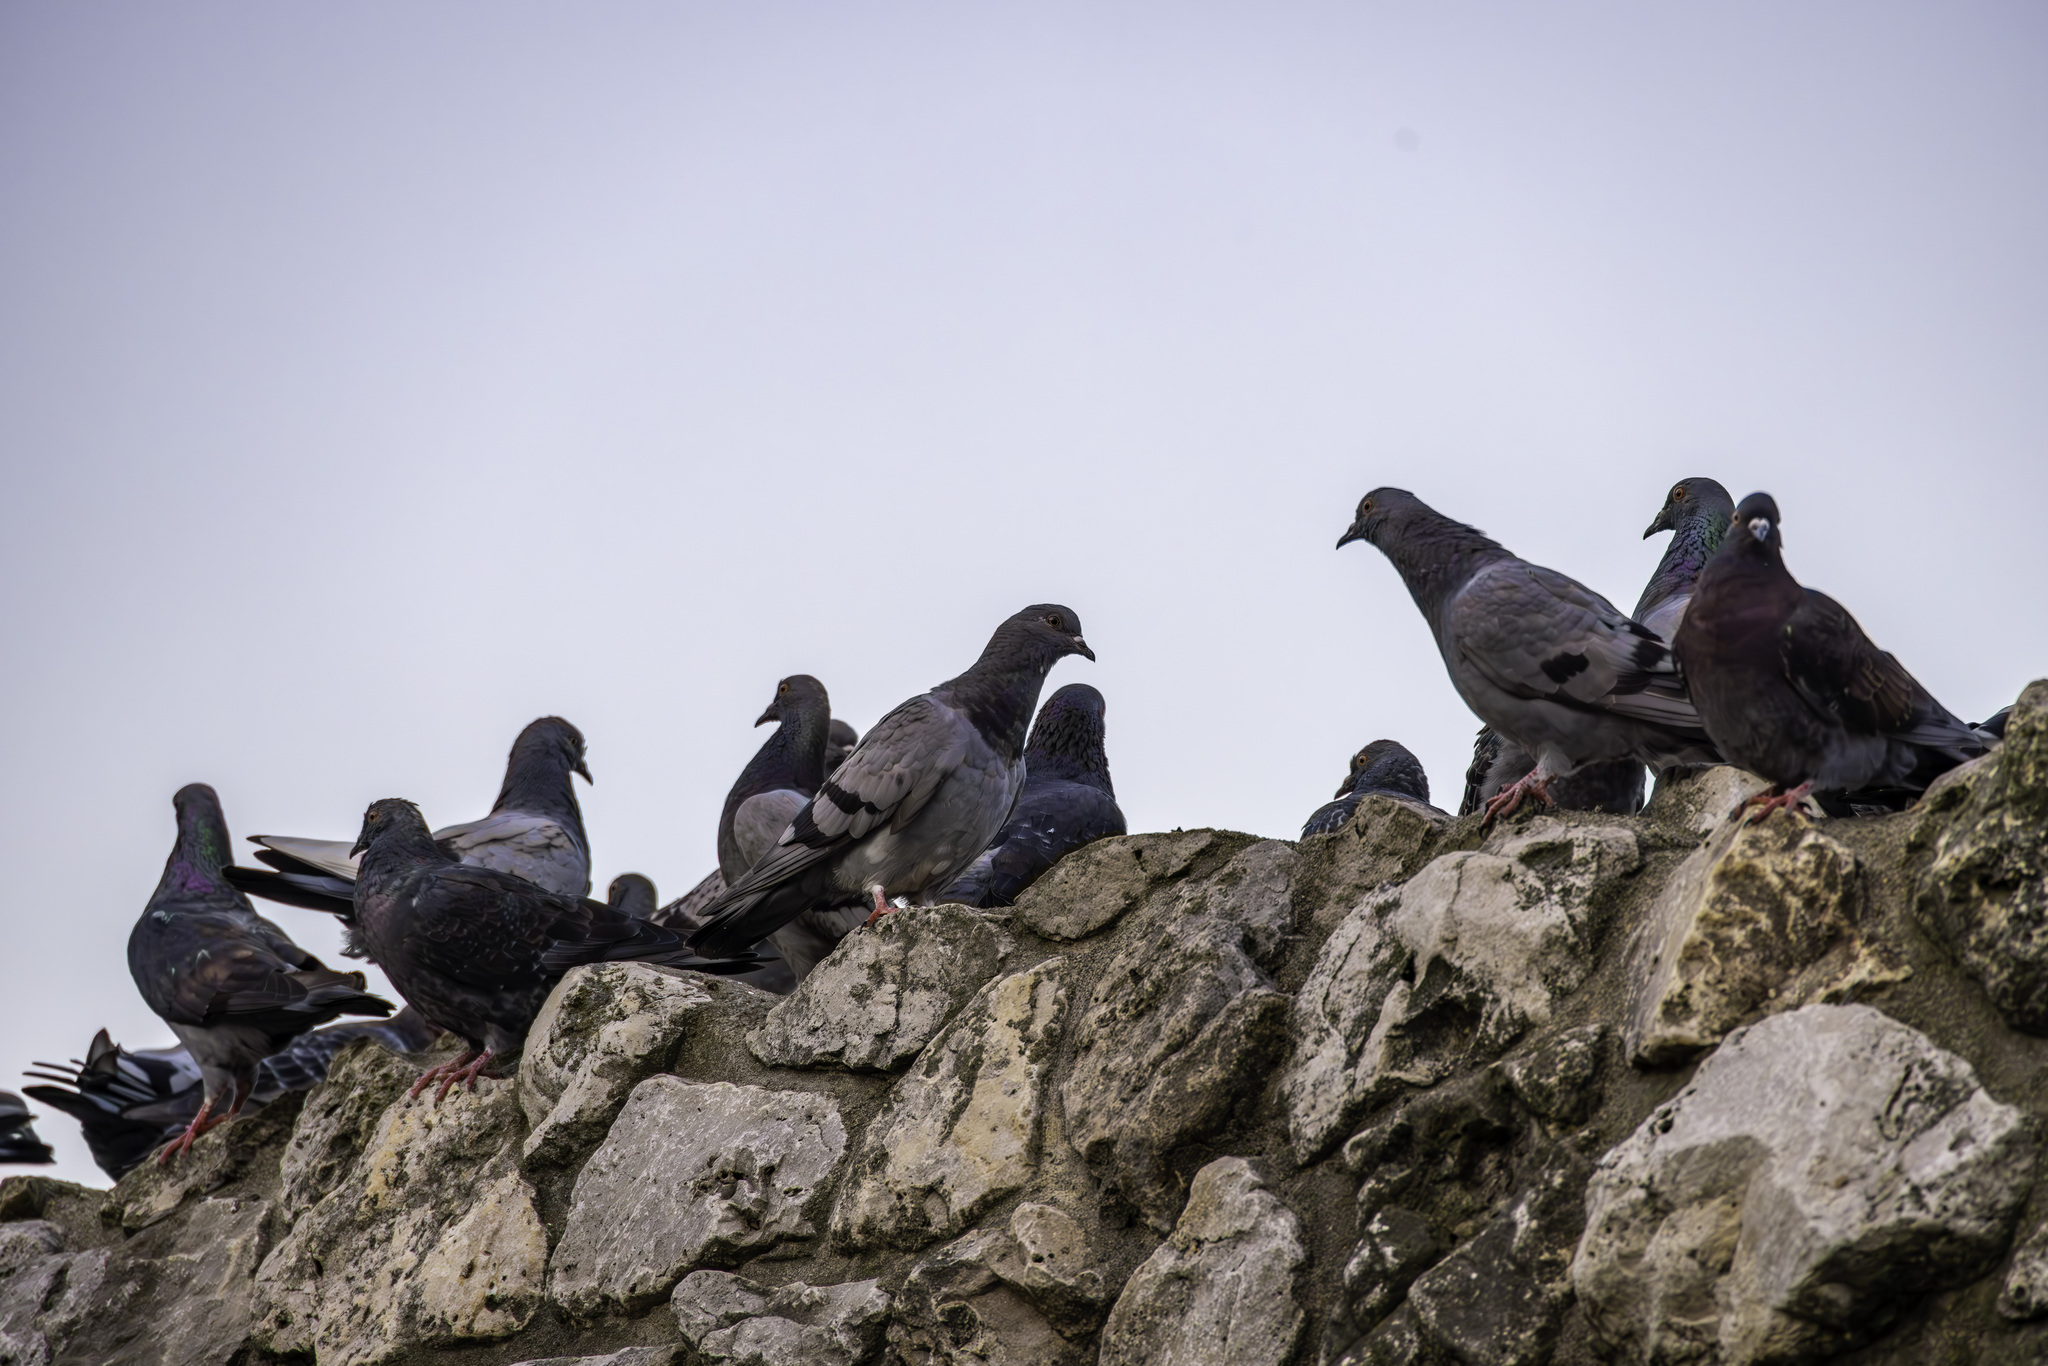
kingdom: Animalia
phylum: Chordata
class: Aves
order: Columbiformes
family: Columbidae
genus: Columba
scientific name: Columba livia
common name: Rock pigeon
